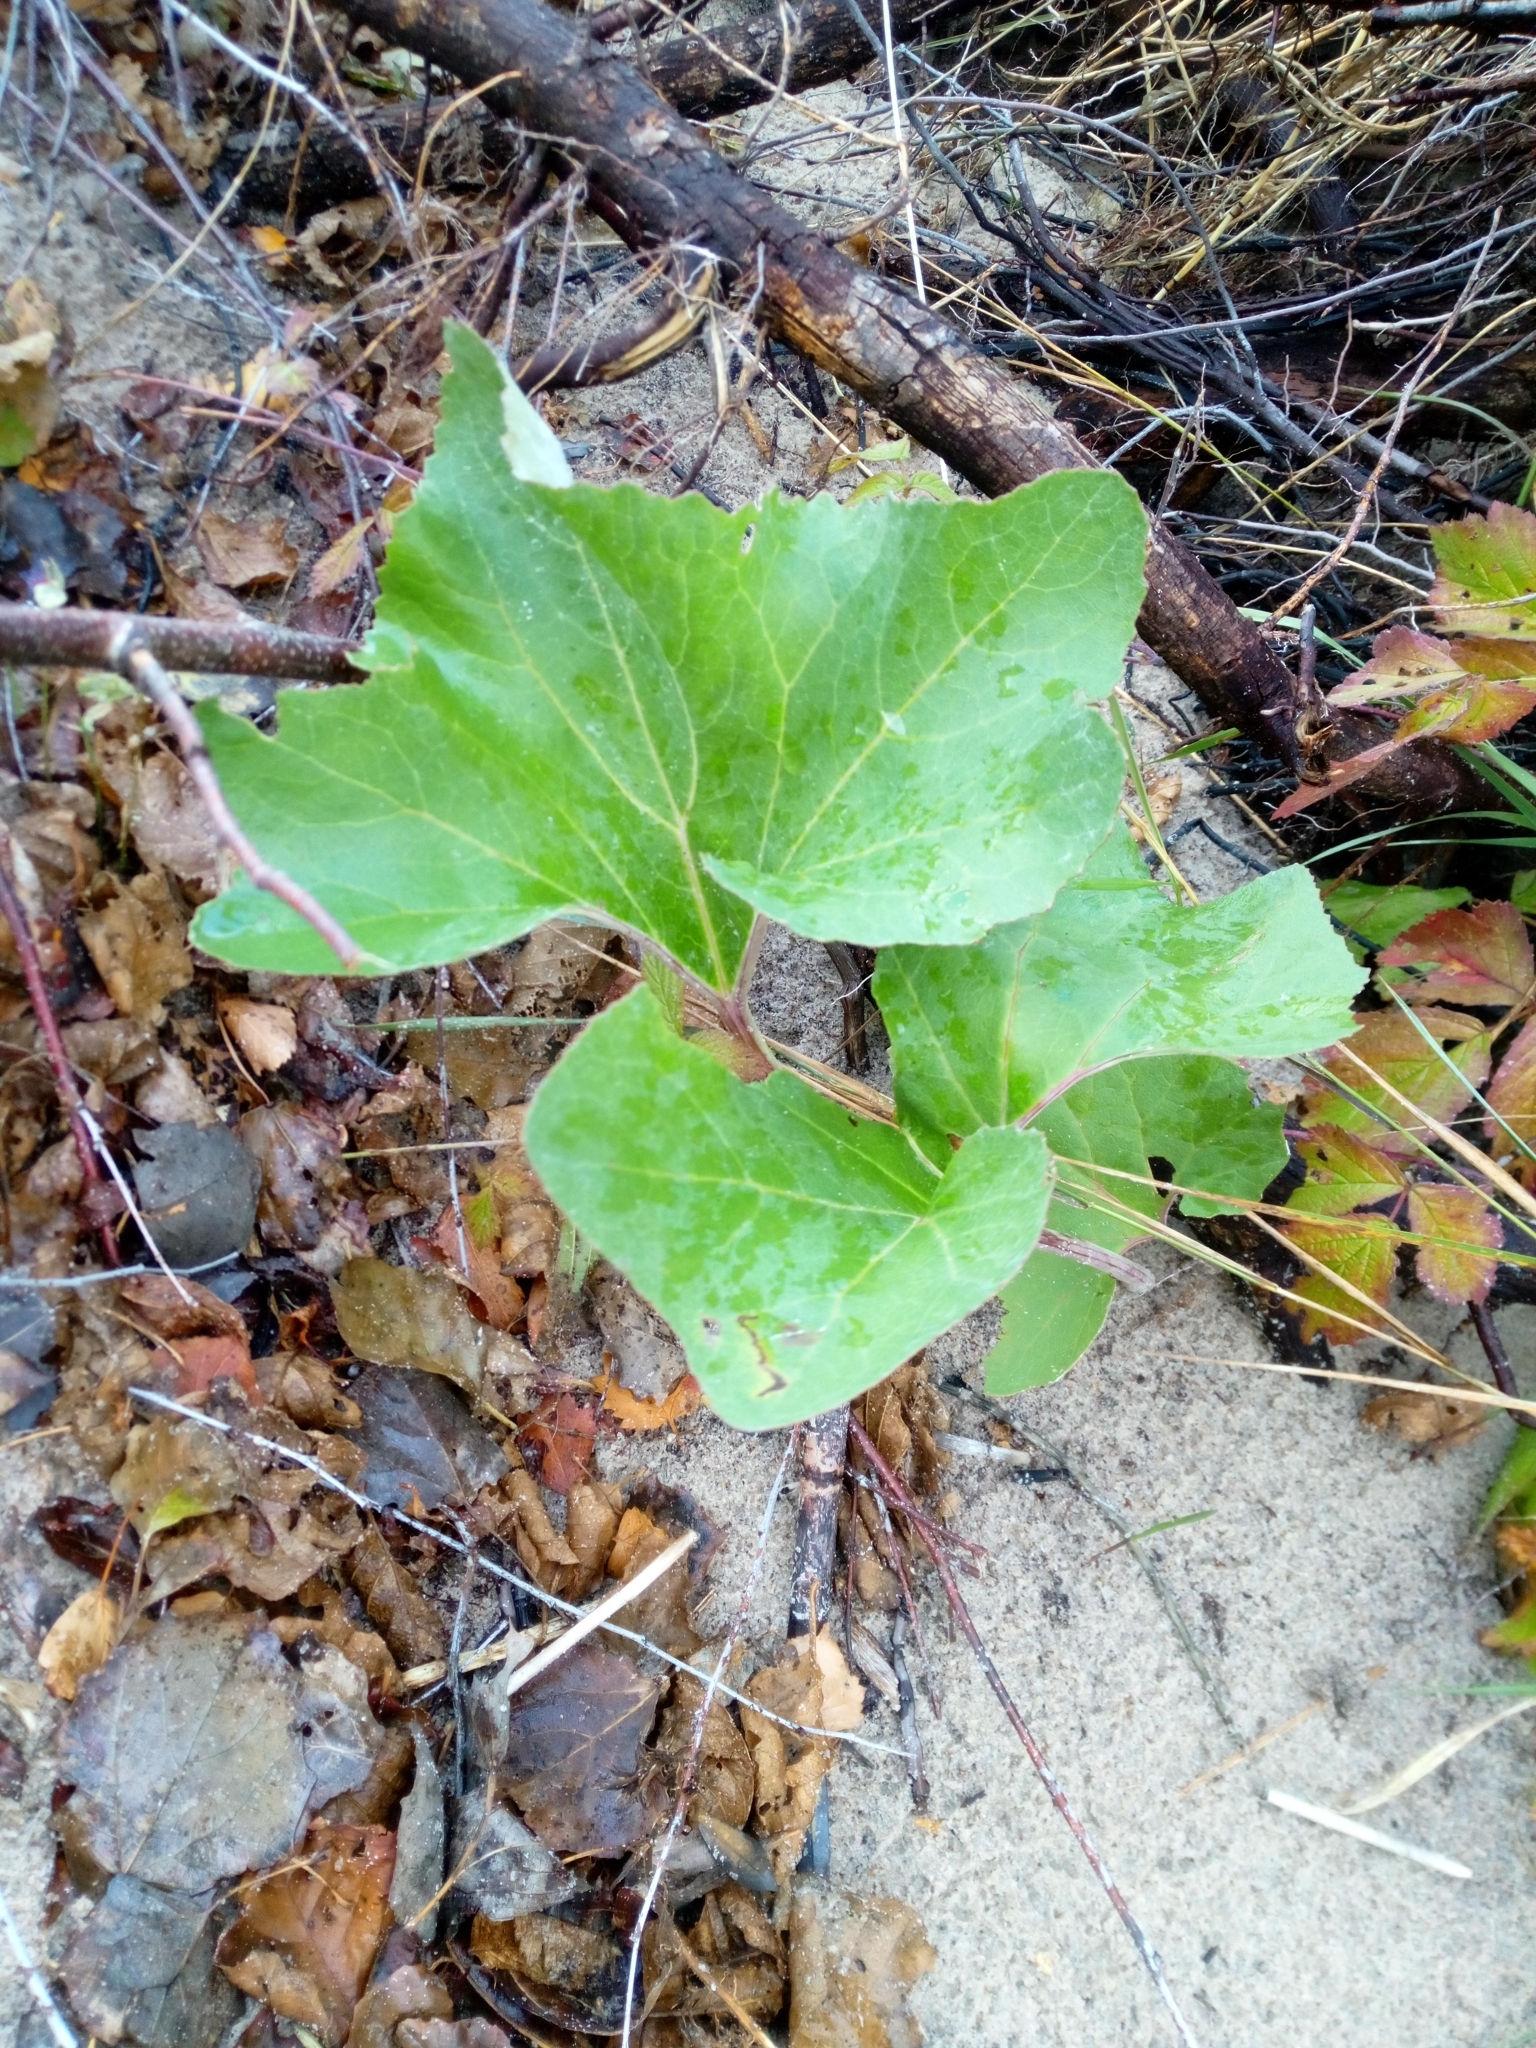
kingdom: Plantae
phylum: Tracheophyta
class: Magnoliopsida
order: Asterales
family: Asteraceae
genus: Petasites
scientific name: Petasites spurius
